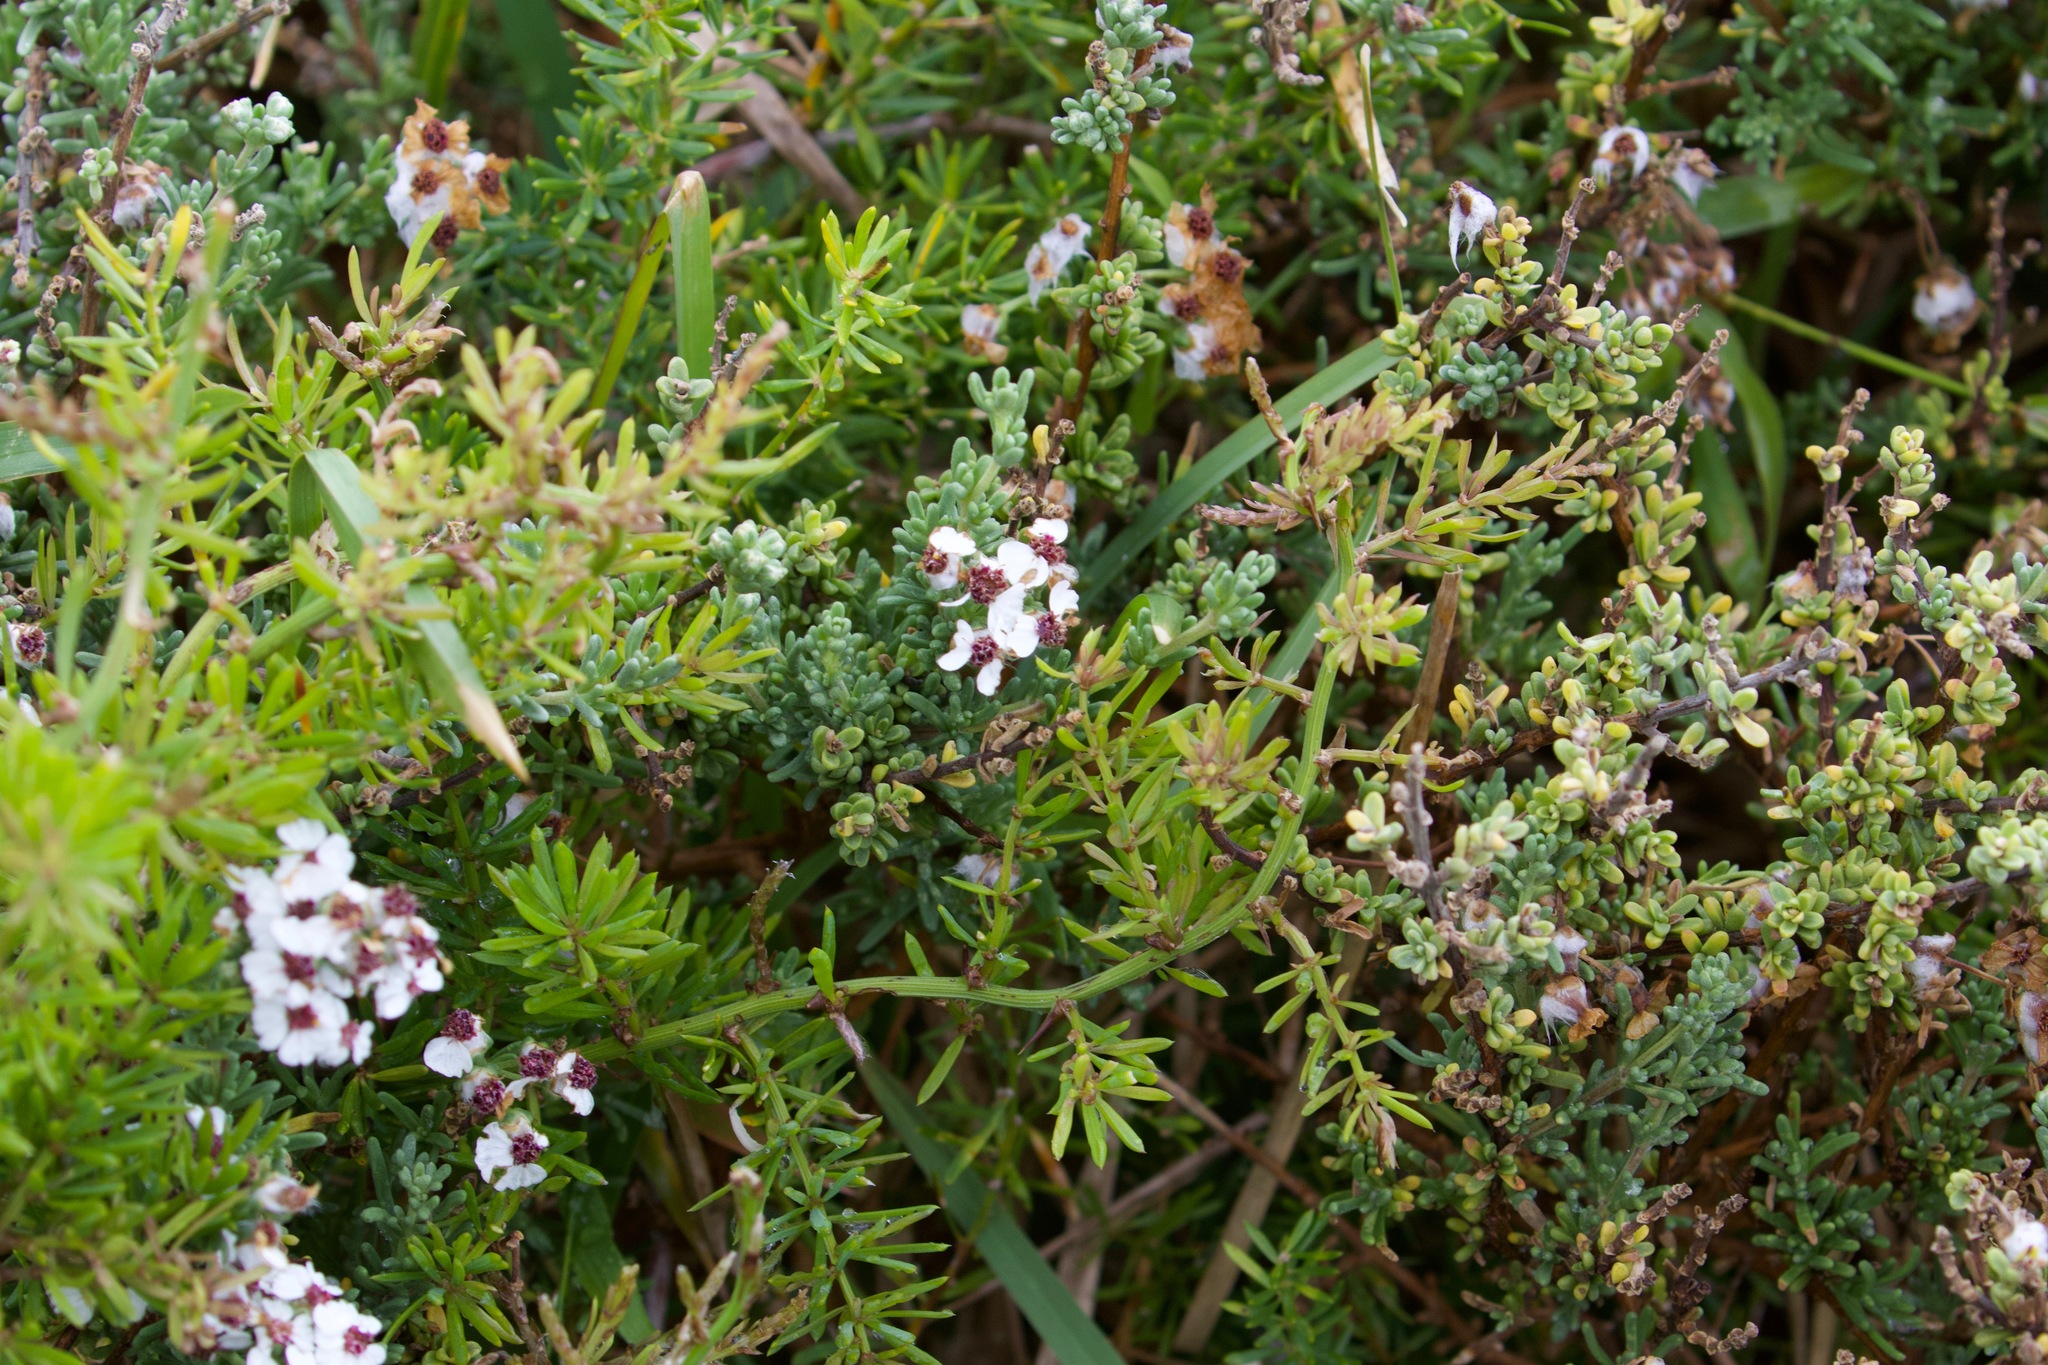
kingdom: Plantae
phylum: Tracheophyta
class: Magnoliopsida
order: Asterales
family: Asteraceae
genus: Eriocephalus
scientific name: Eriocephalus africanus
